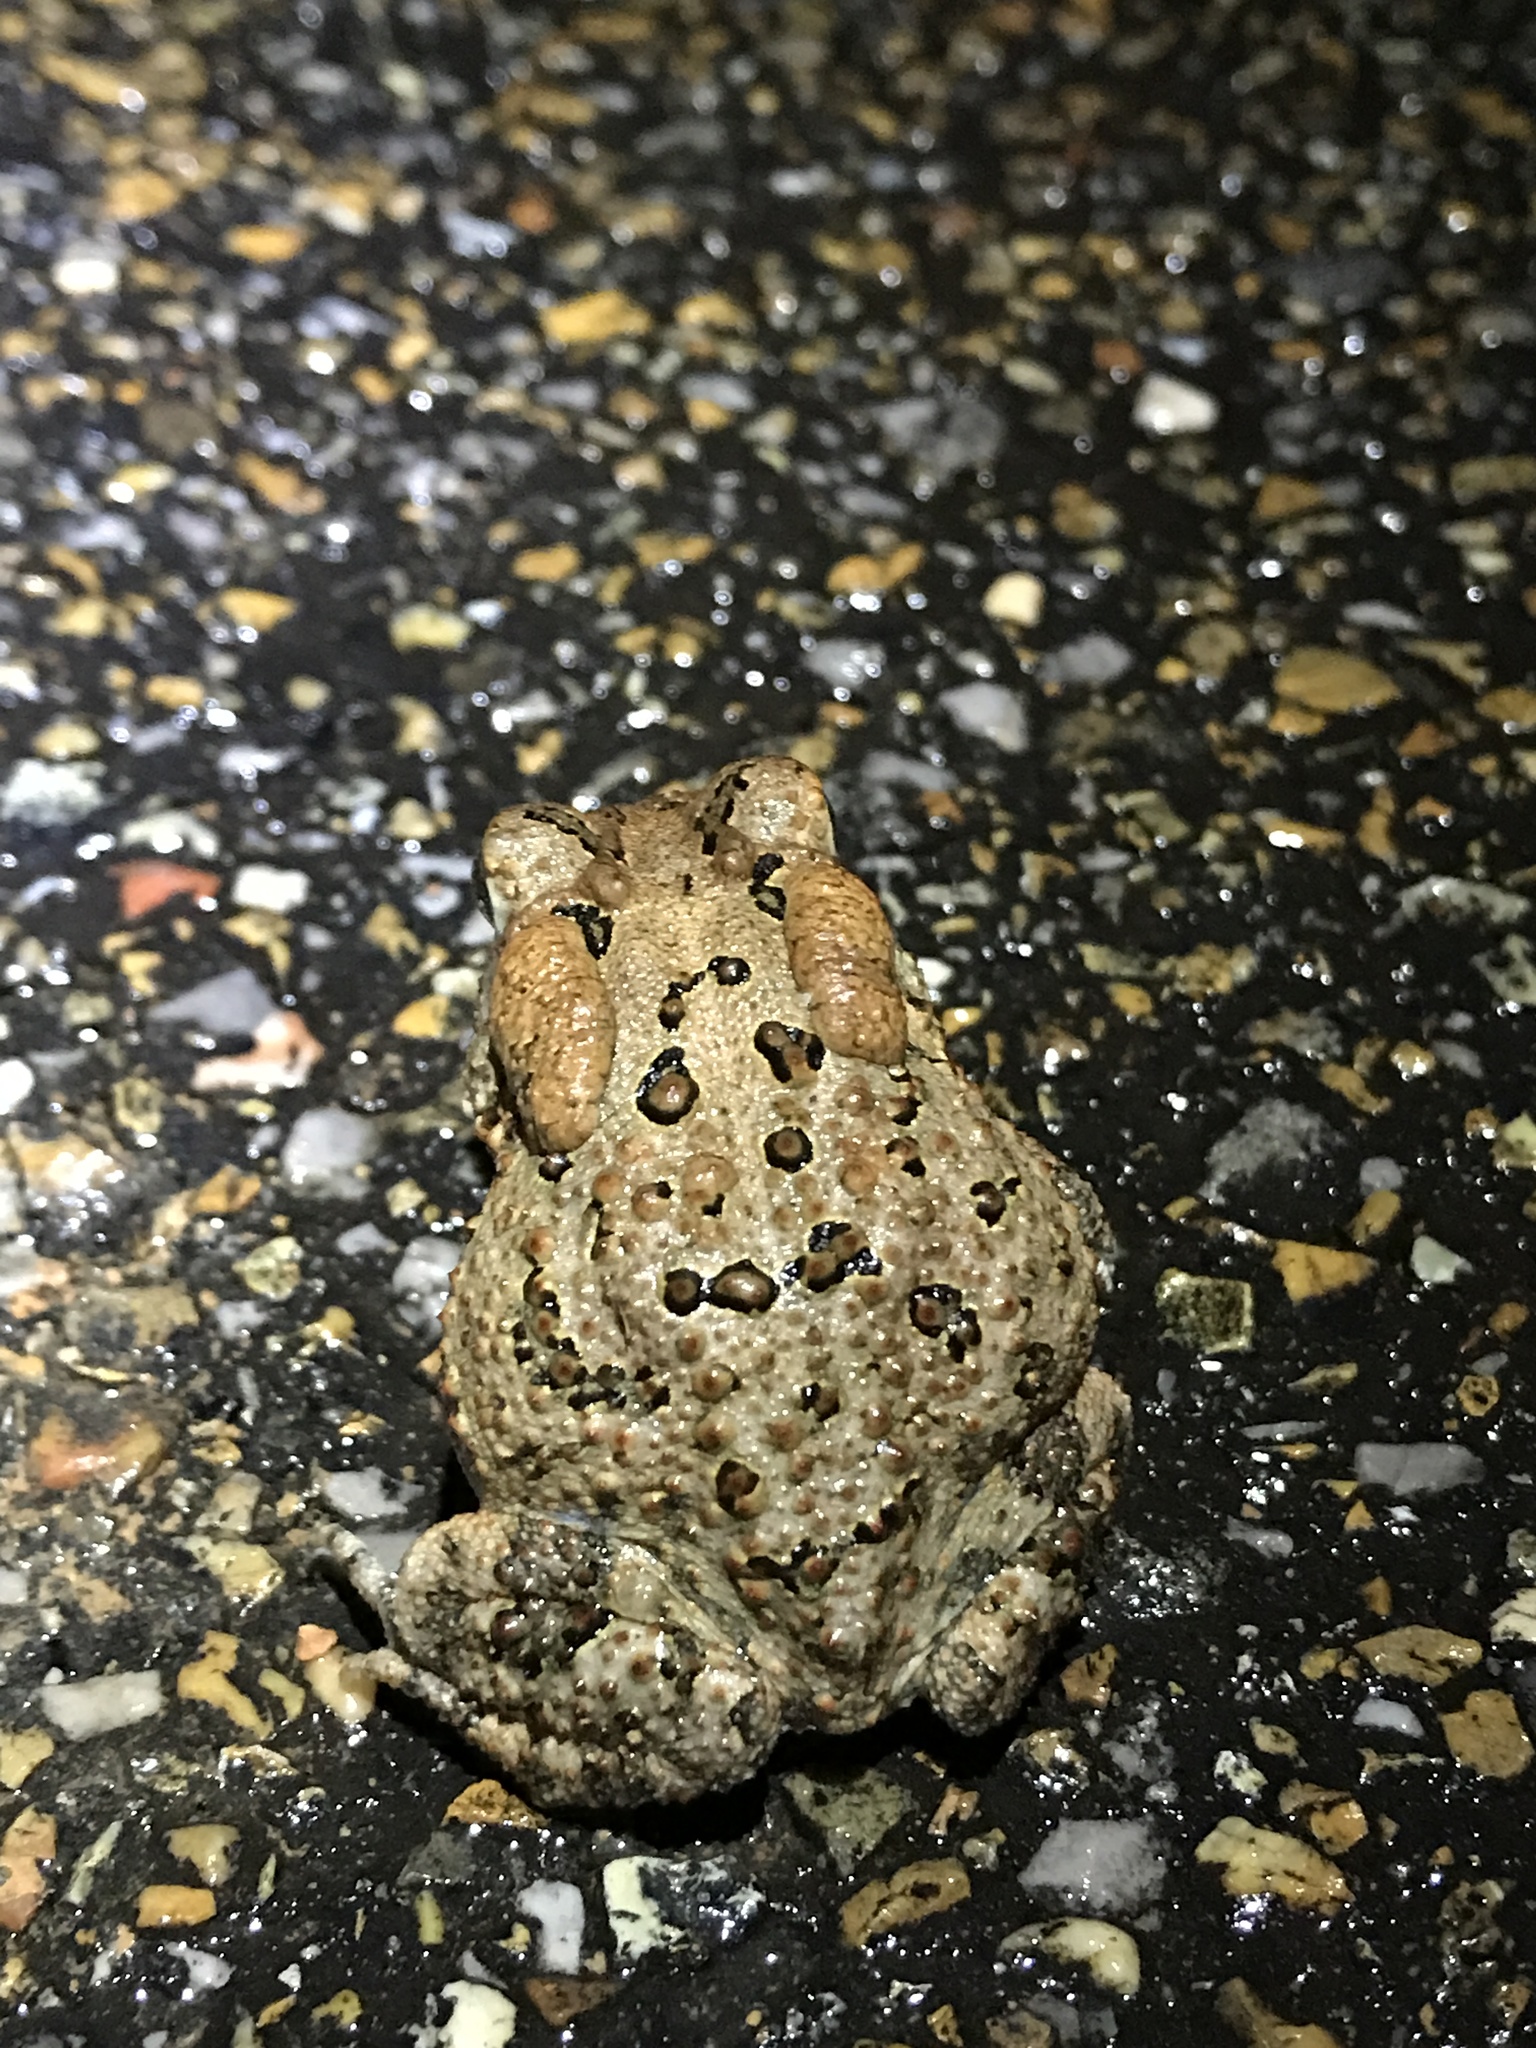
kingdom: Animalia
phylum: Chordata
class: Amphibia
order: Anura
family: Bufonidae
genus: Anaxyrus
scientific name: Anaxyrus terrestris
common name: Southern toad
